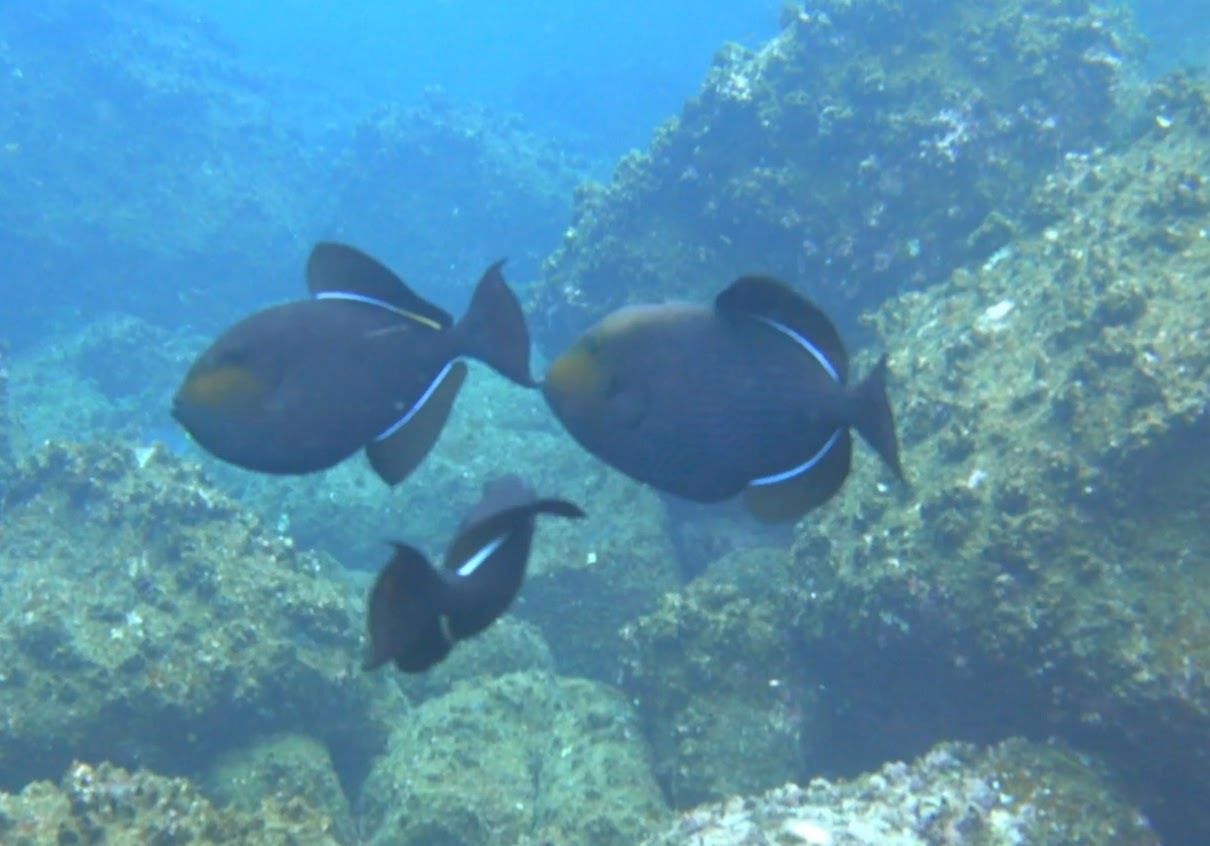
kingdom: Animalia
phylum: Chordata
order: Tetraodontiformes
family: Balistidae
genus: Melichthys
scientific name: Melichthys niger
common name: Black durgon
